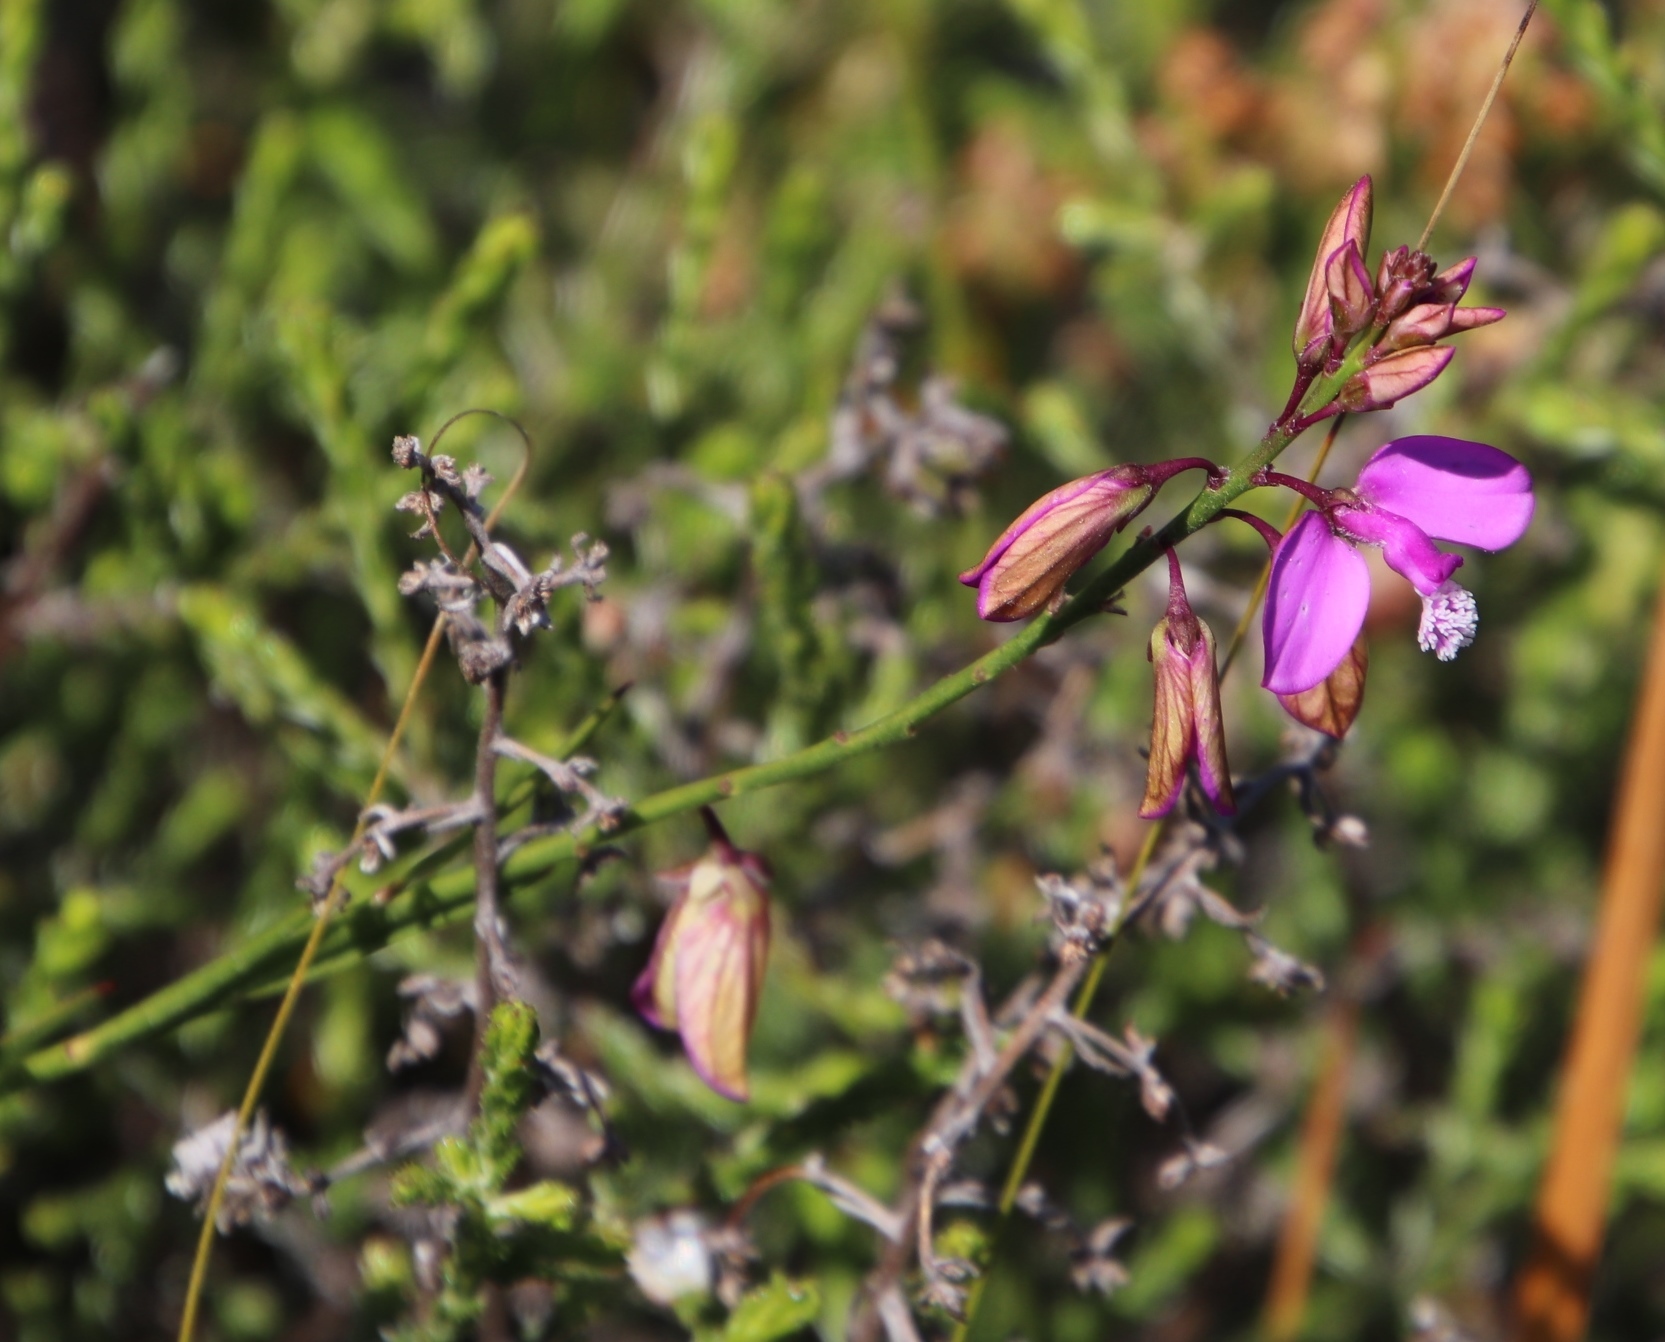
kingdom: Plantae
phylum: Tracheophyta
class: Magnoliopsida
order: Fabales
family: Polygalaceae
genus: Polygala
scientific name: Polygala garcini
